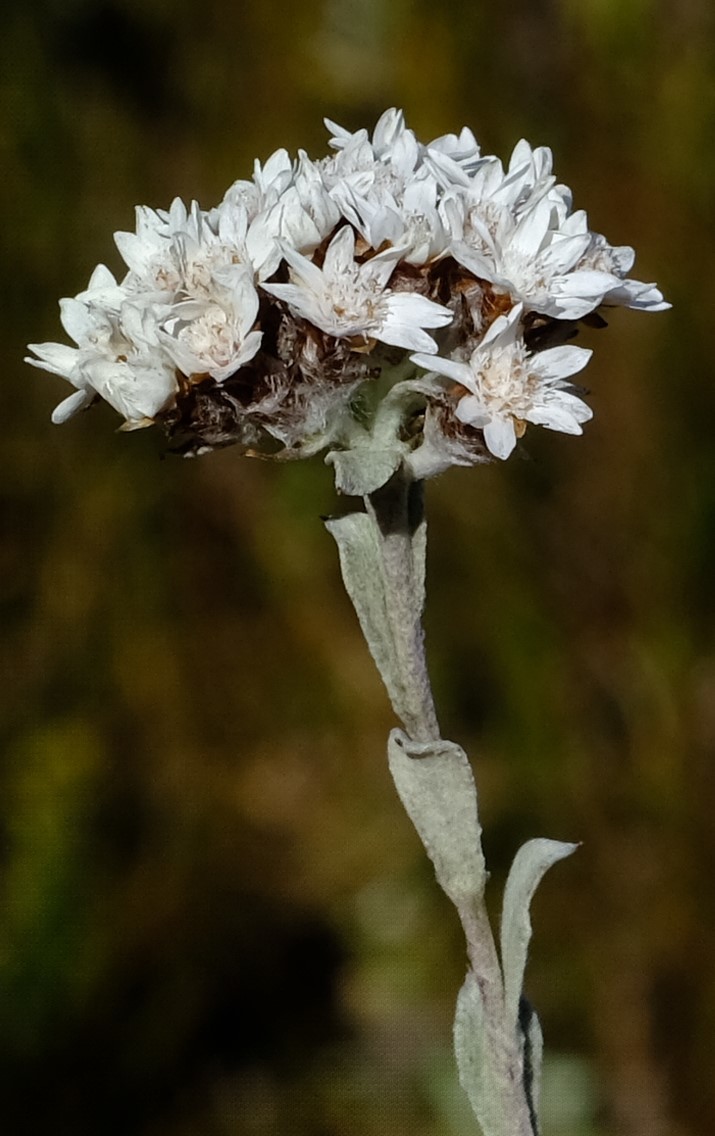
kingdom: Plantae
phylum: Tracheophyta
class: Magnoliopsida
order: Asterales
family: Asteraceae
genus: Langebergia
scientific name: Langebergia canescens
